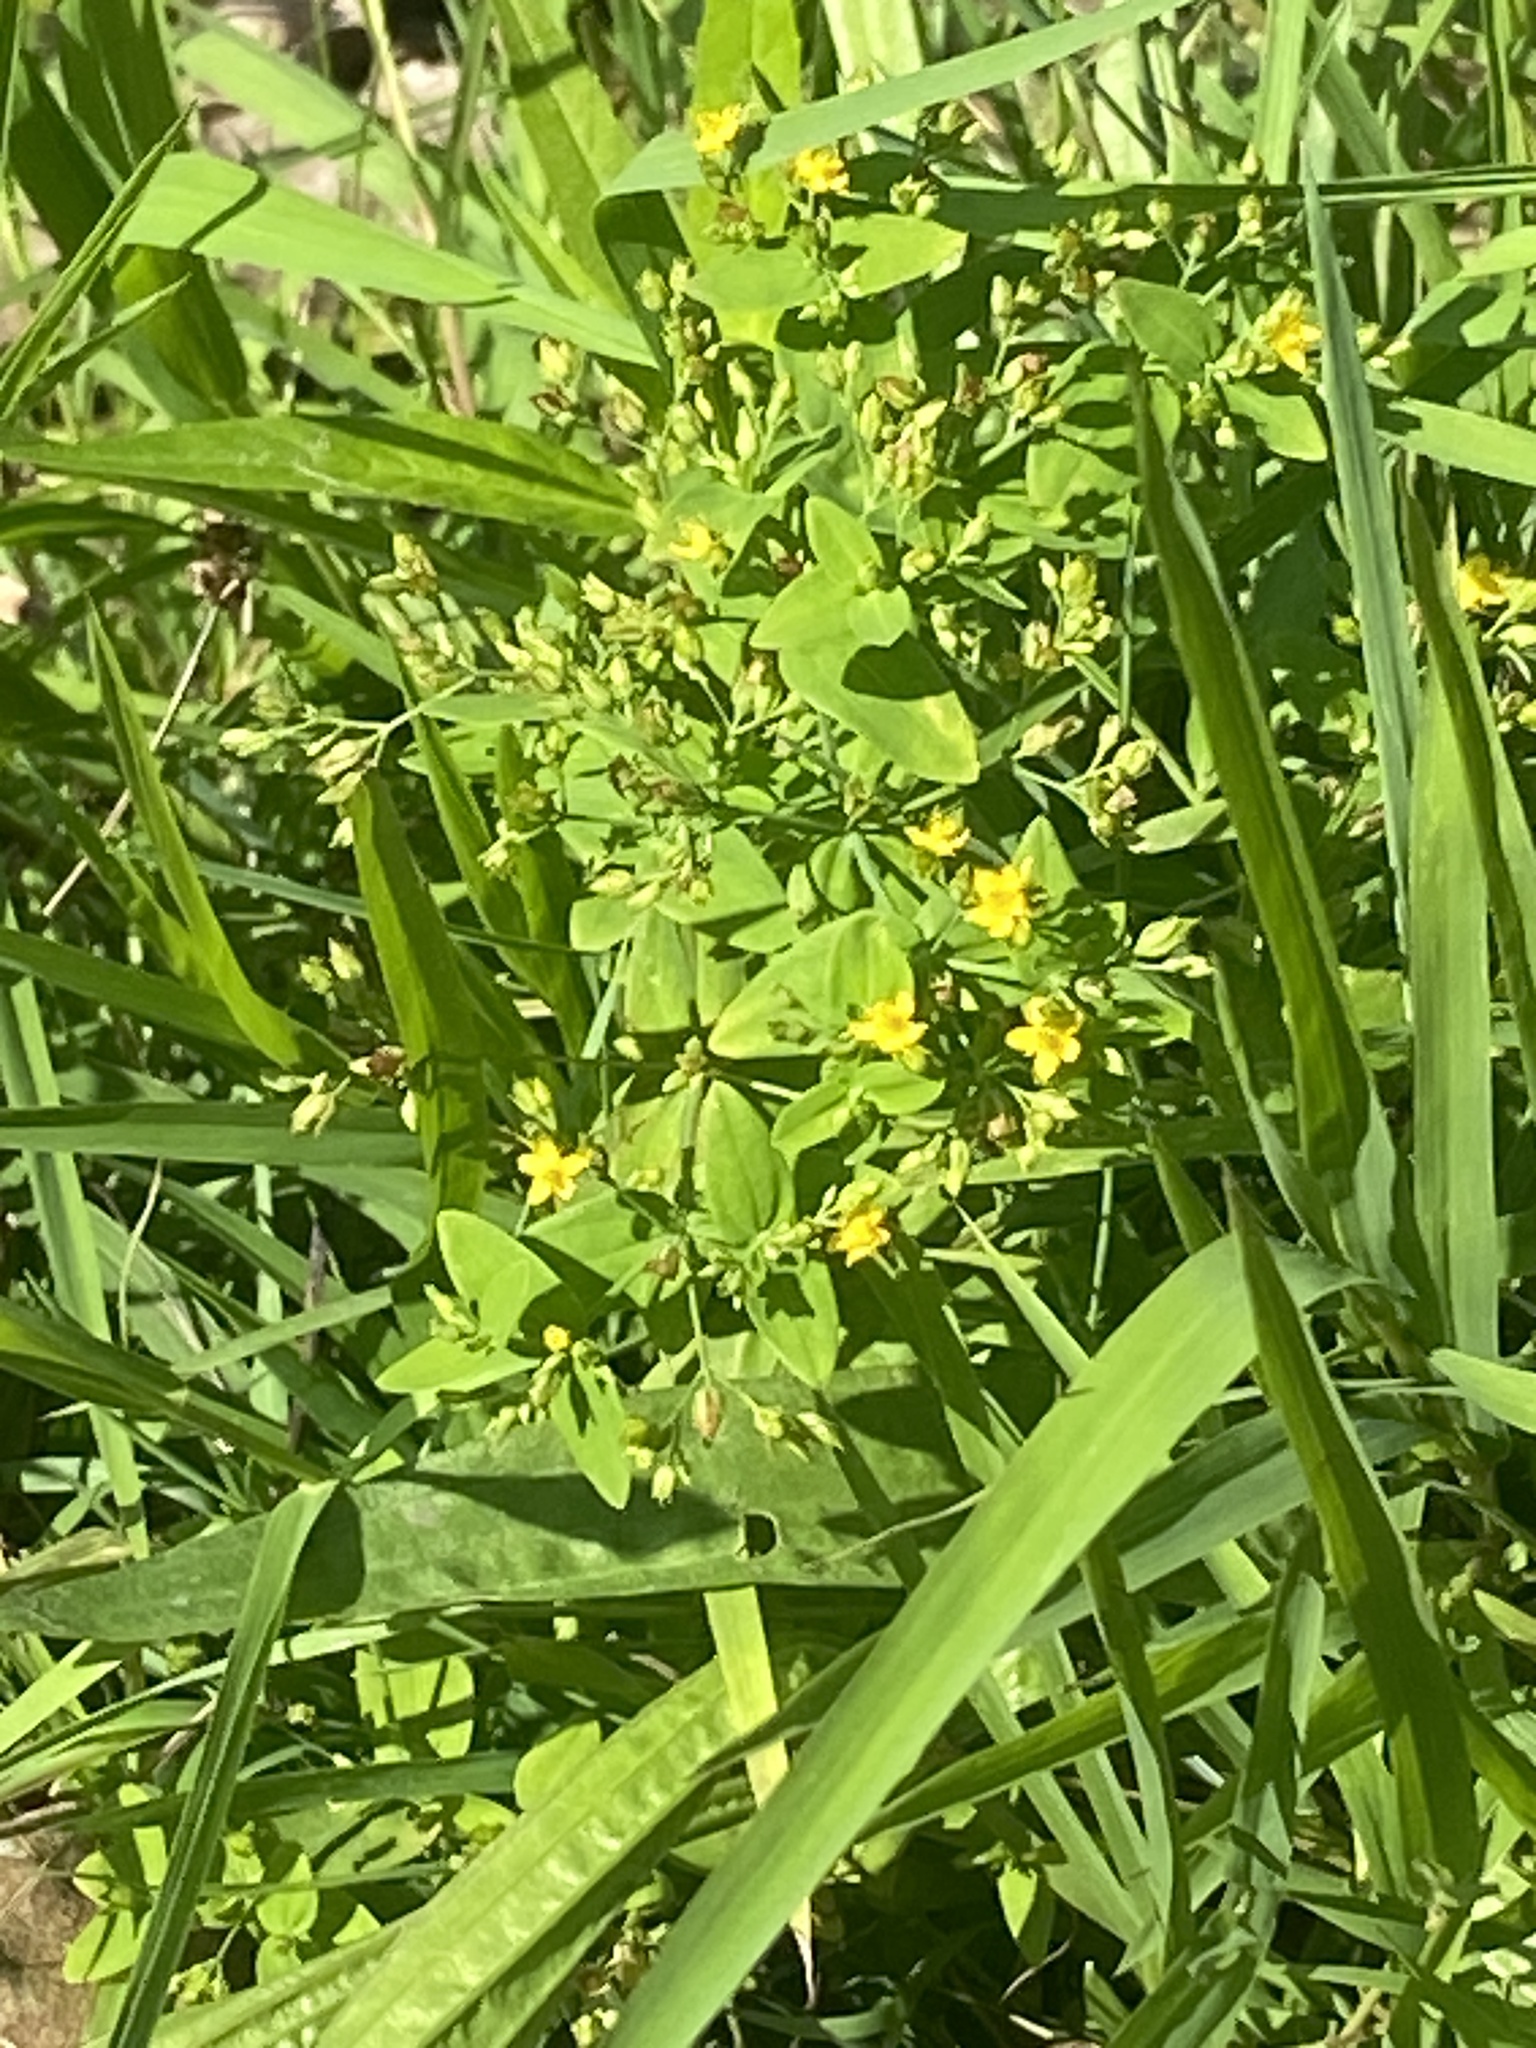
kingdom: Plantae
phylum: Tracheophyta
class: Magnoliopsida
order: Malpighiales
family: Hypericaceae
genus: Hypericum
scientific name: Hypericum mutilum
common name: Dwarf st. john's-wort
